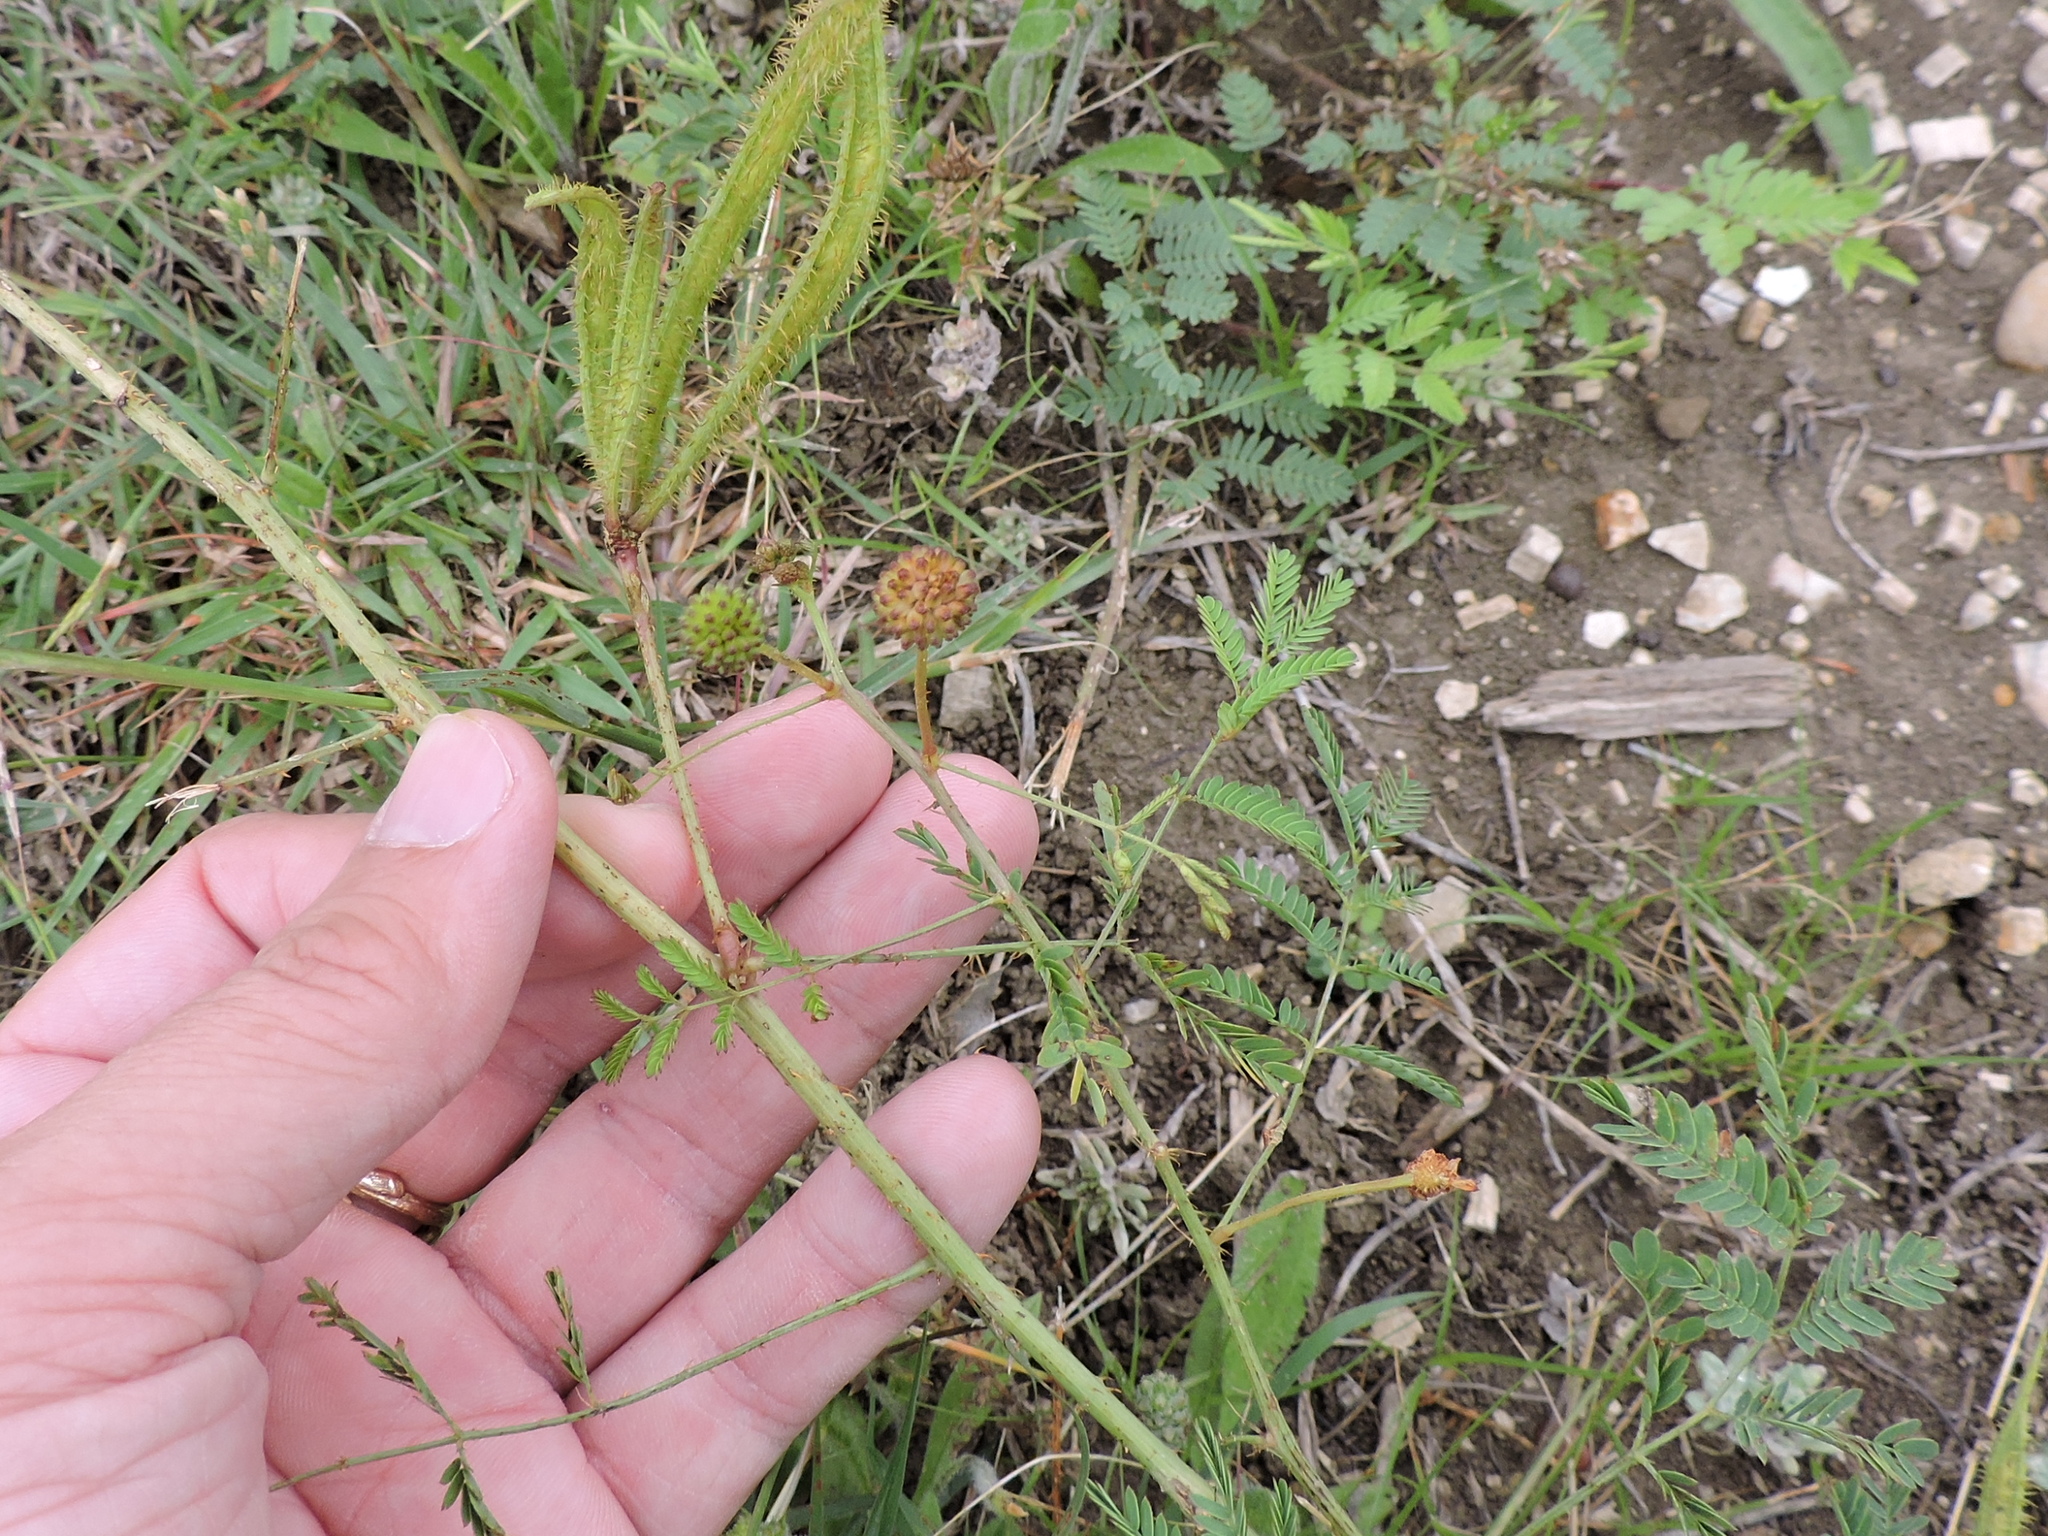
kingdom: Plantae
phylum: Tracheophyta
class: Magnoliopsida
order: Fabales
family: Fabaceae
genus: Mimosa
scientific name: Mimosa quadrivalvis
